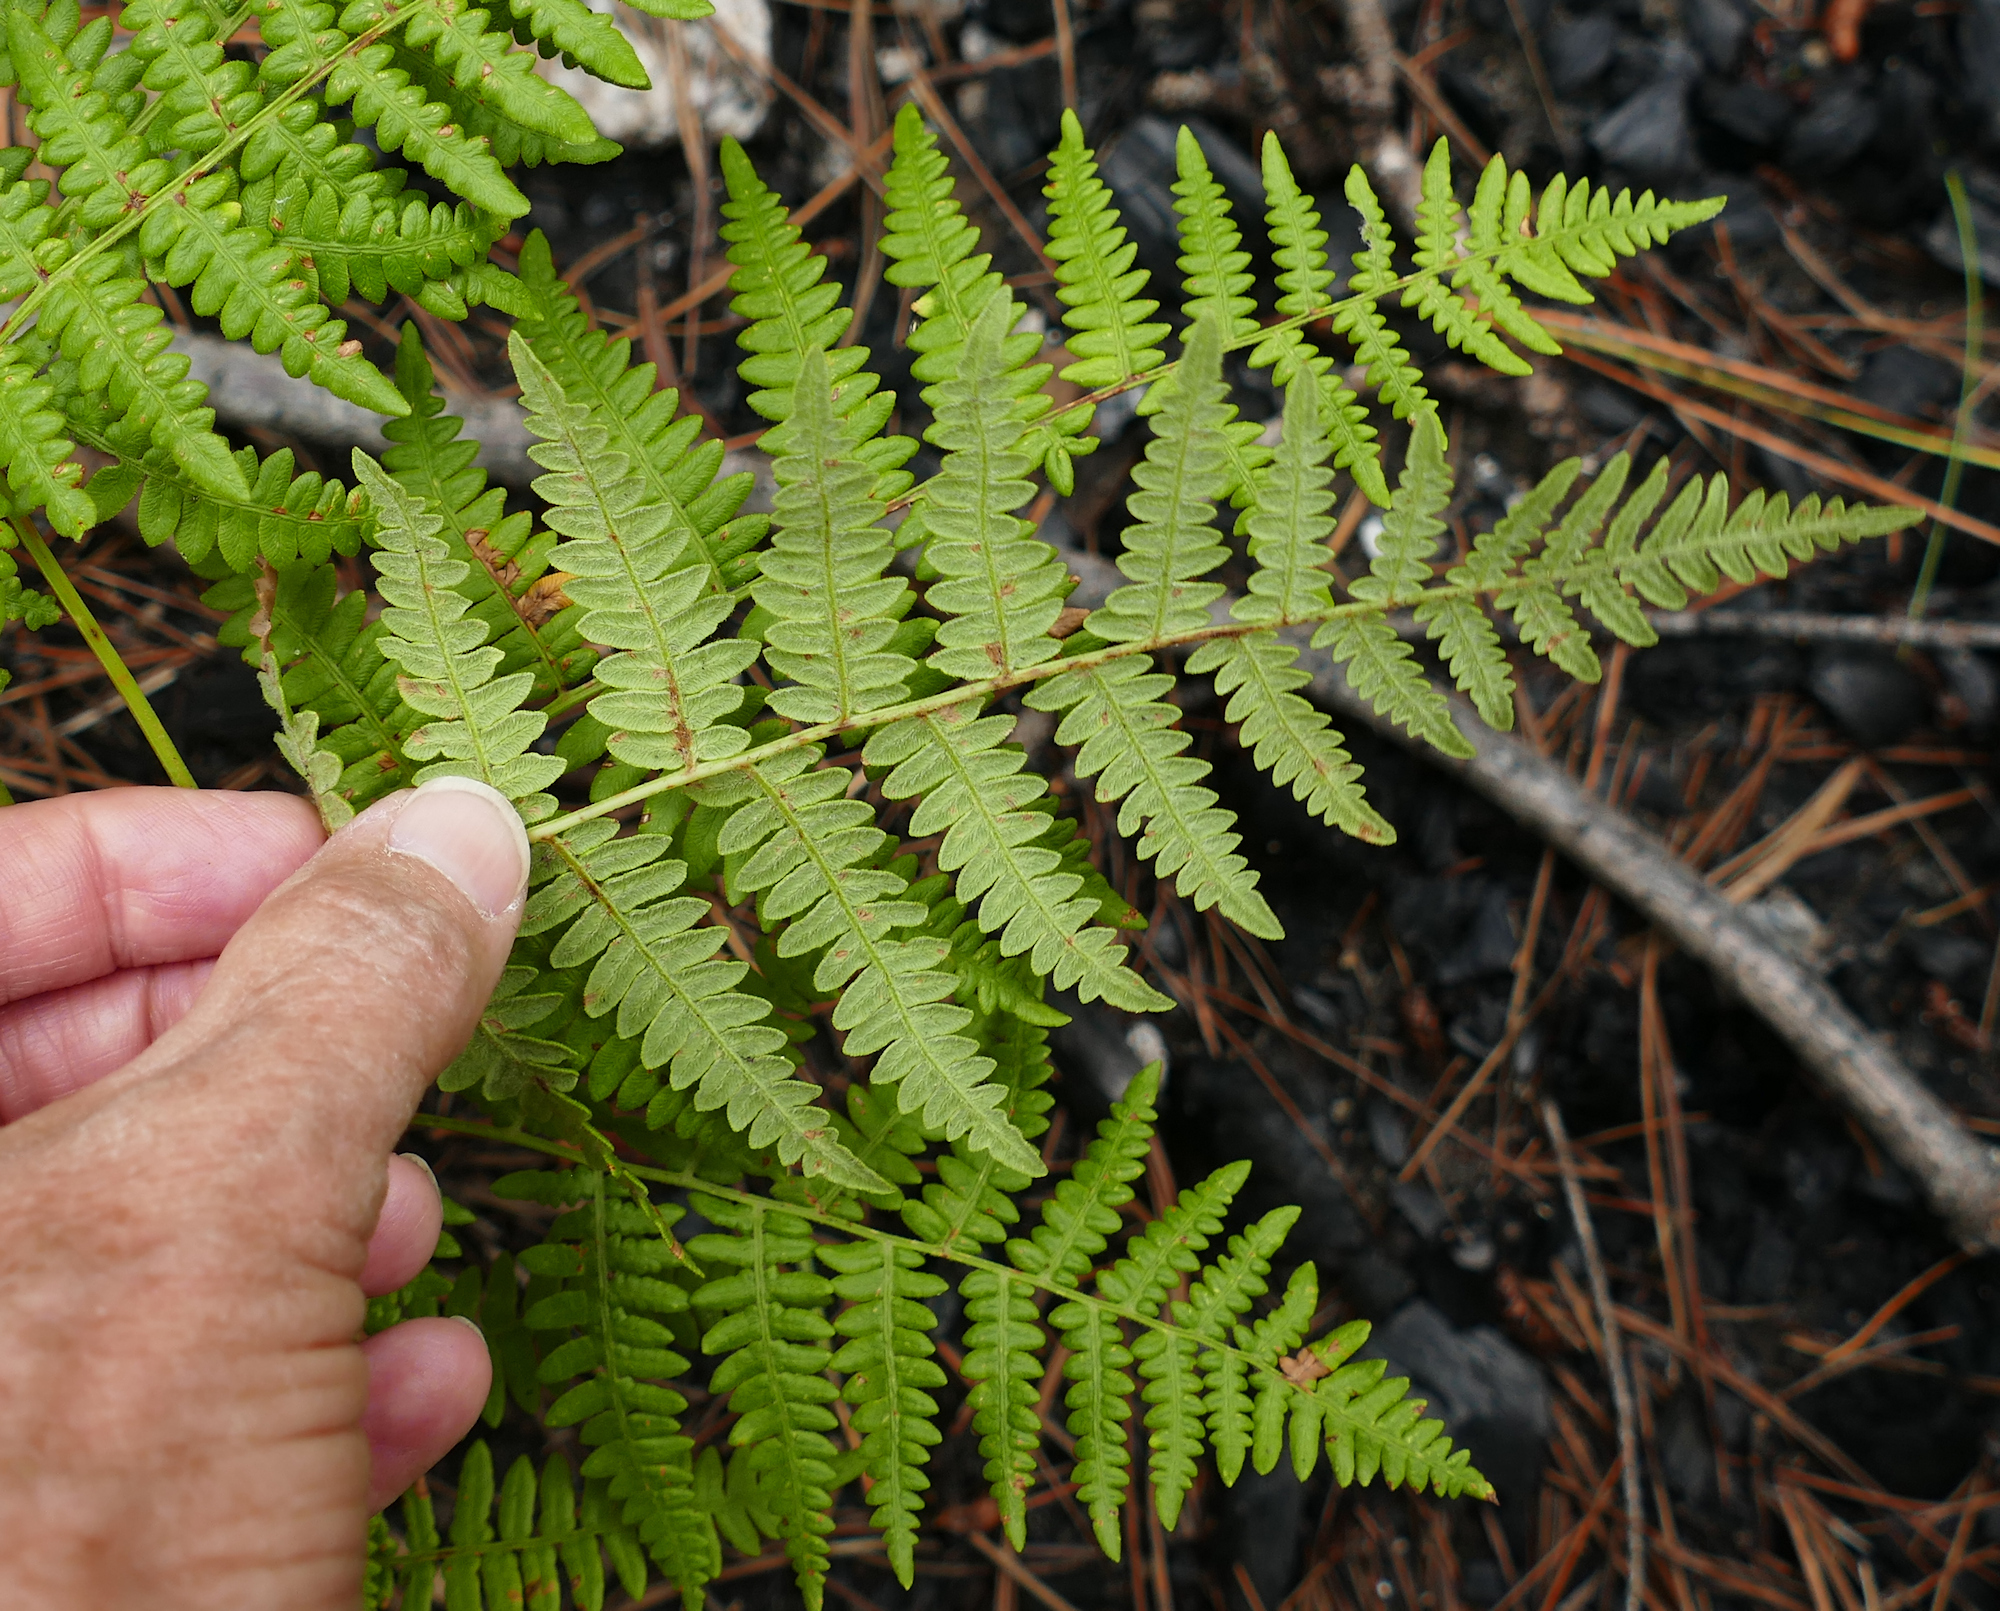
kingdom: Plantae
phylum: Tracheophyta
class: Polypodiopsida
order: Polypodiales
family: Dennstaedtiaceae
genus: Pteridium
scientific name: Pteridium aquilinum
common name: Bracken
